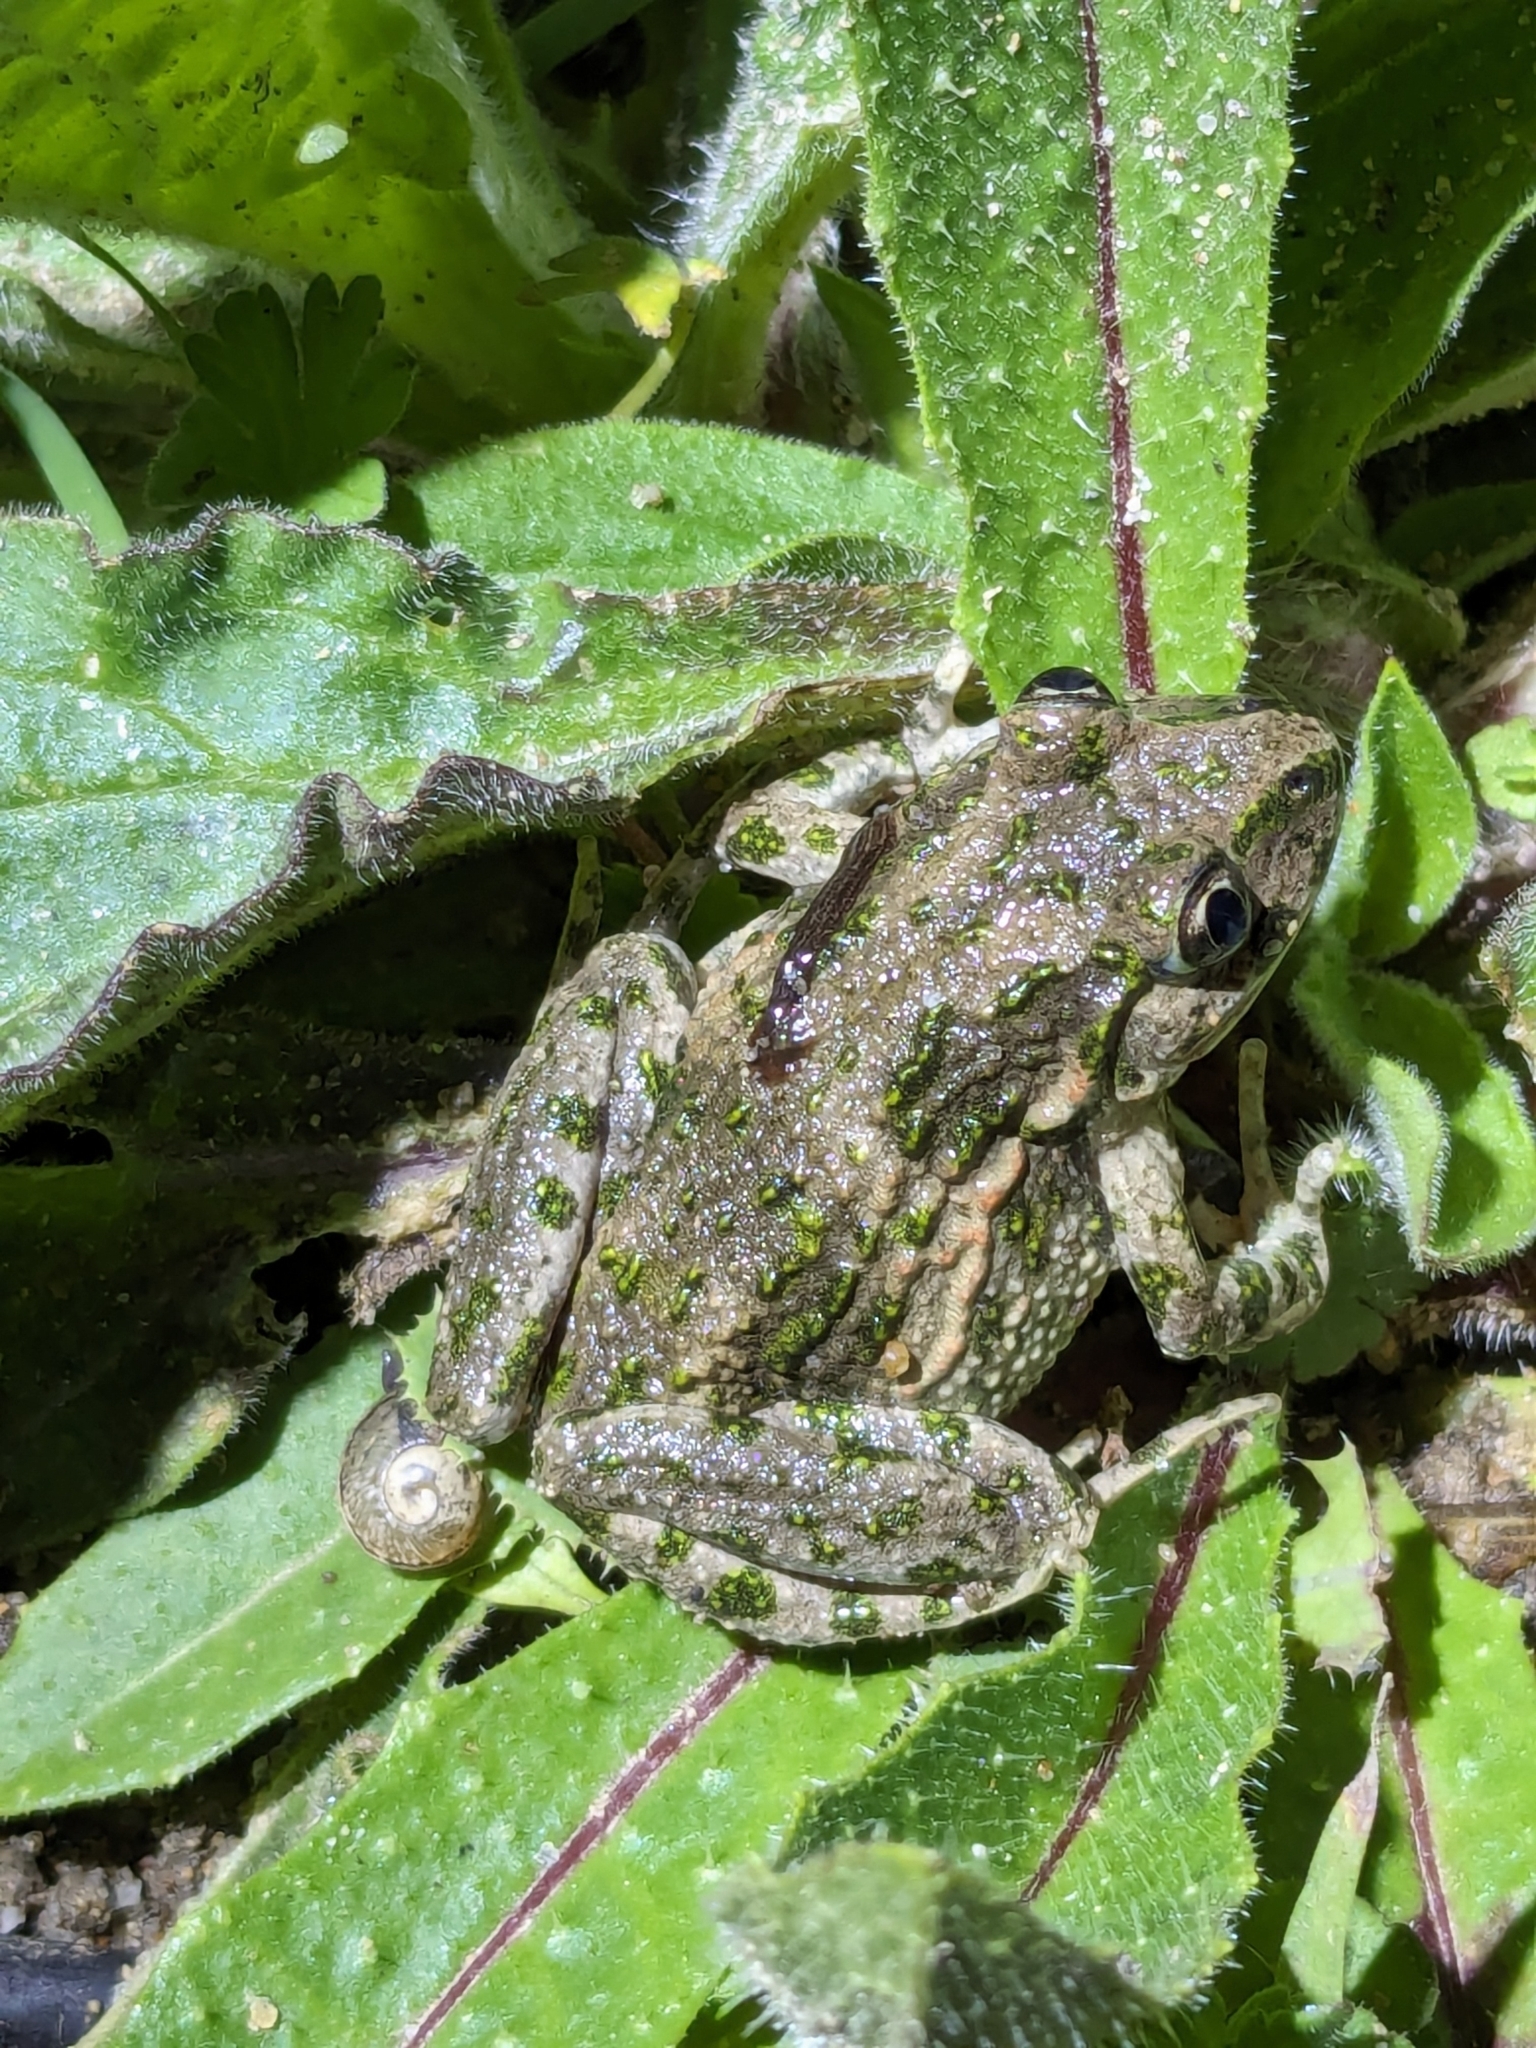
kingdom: Animalia
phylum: Chordata
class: Amphibia
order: Anura
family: Pelodytidae
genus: Pelodytes
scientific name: Pelodytes punctatus
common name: Parsley frog
